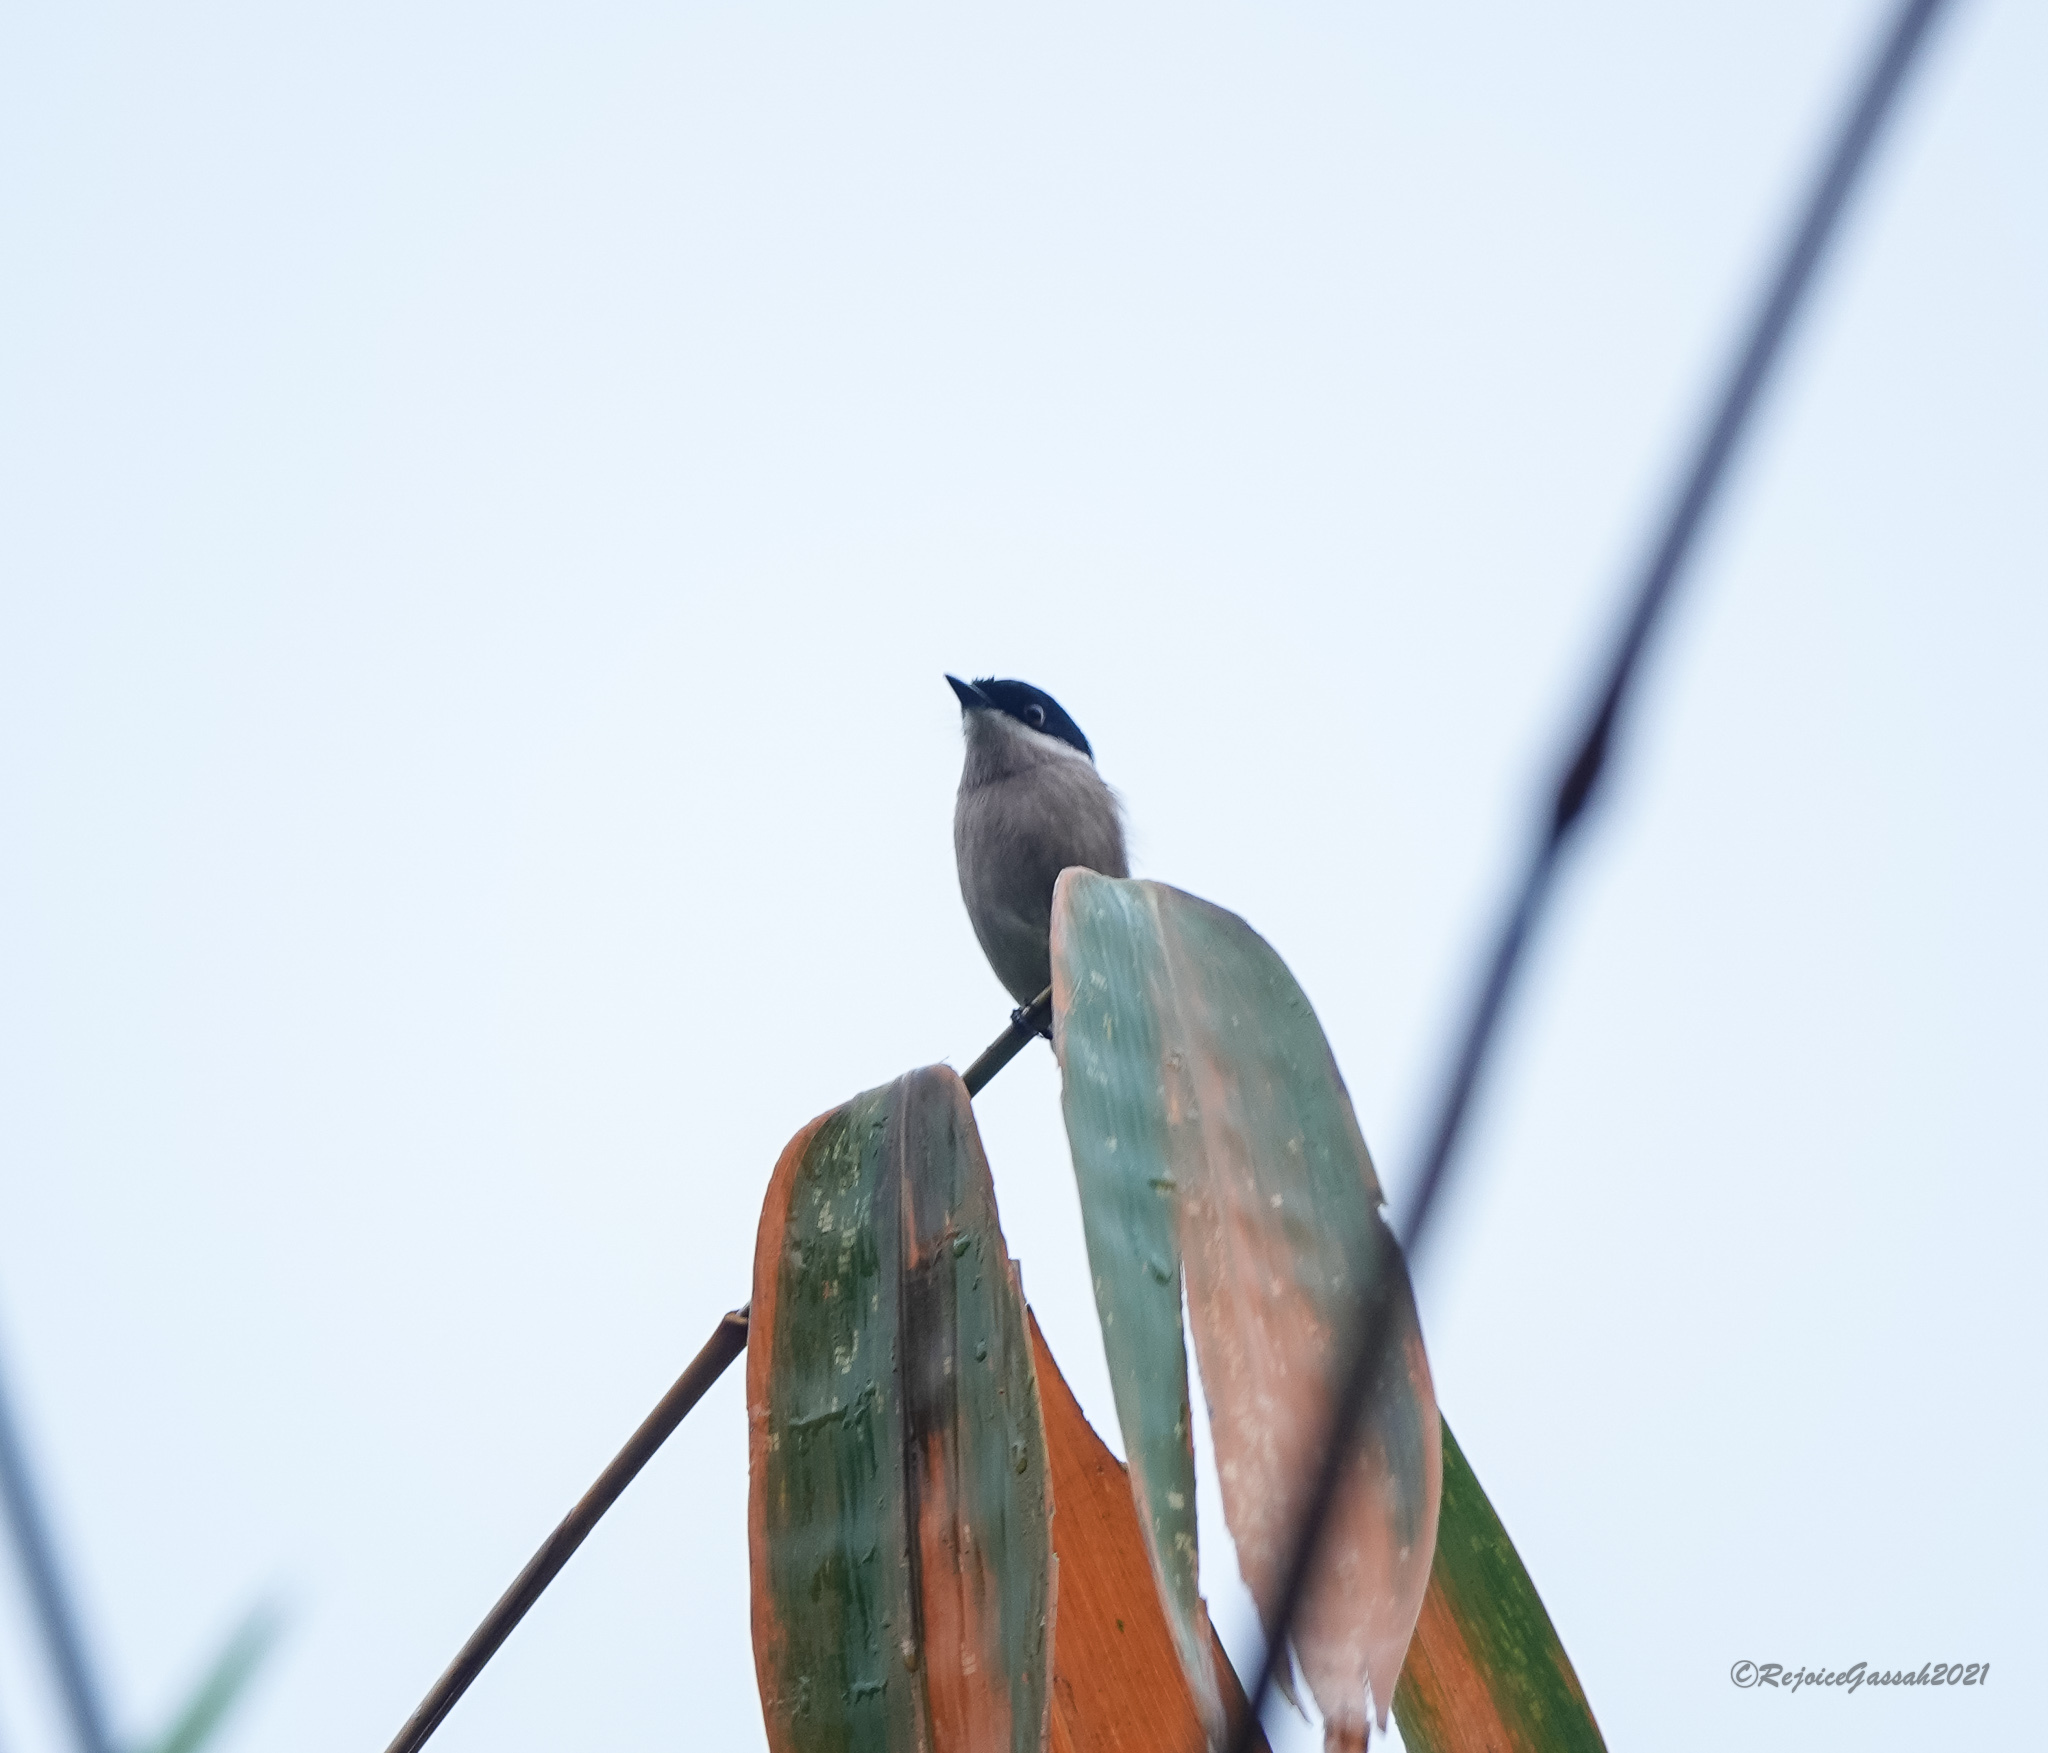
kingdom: Animalia
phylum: Chordata
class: Aves
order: Passeriformes
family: Tephrodornithidae
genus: Hemipus
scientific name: Hemipus picatus
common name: Bar-winged flycatcher-shrike
